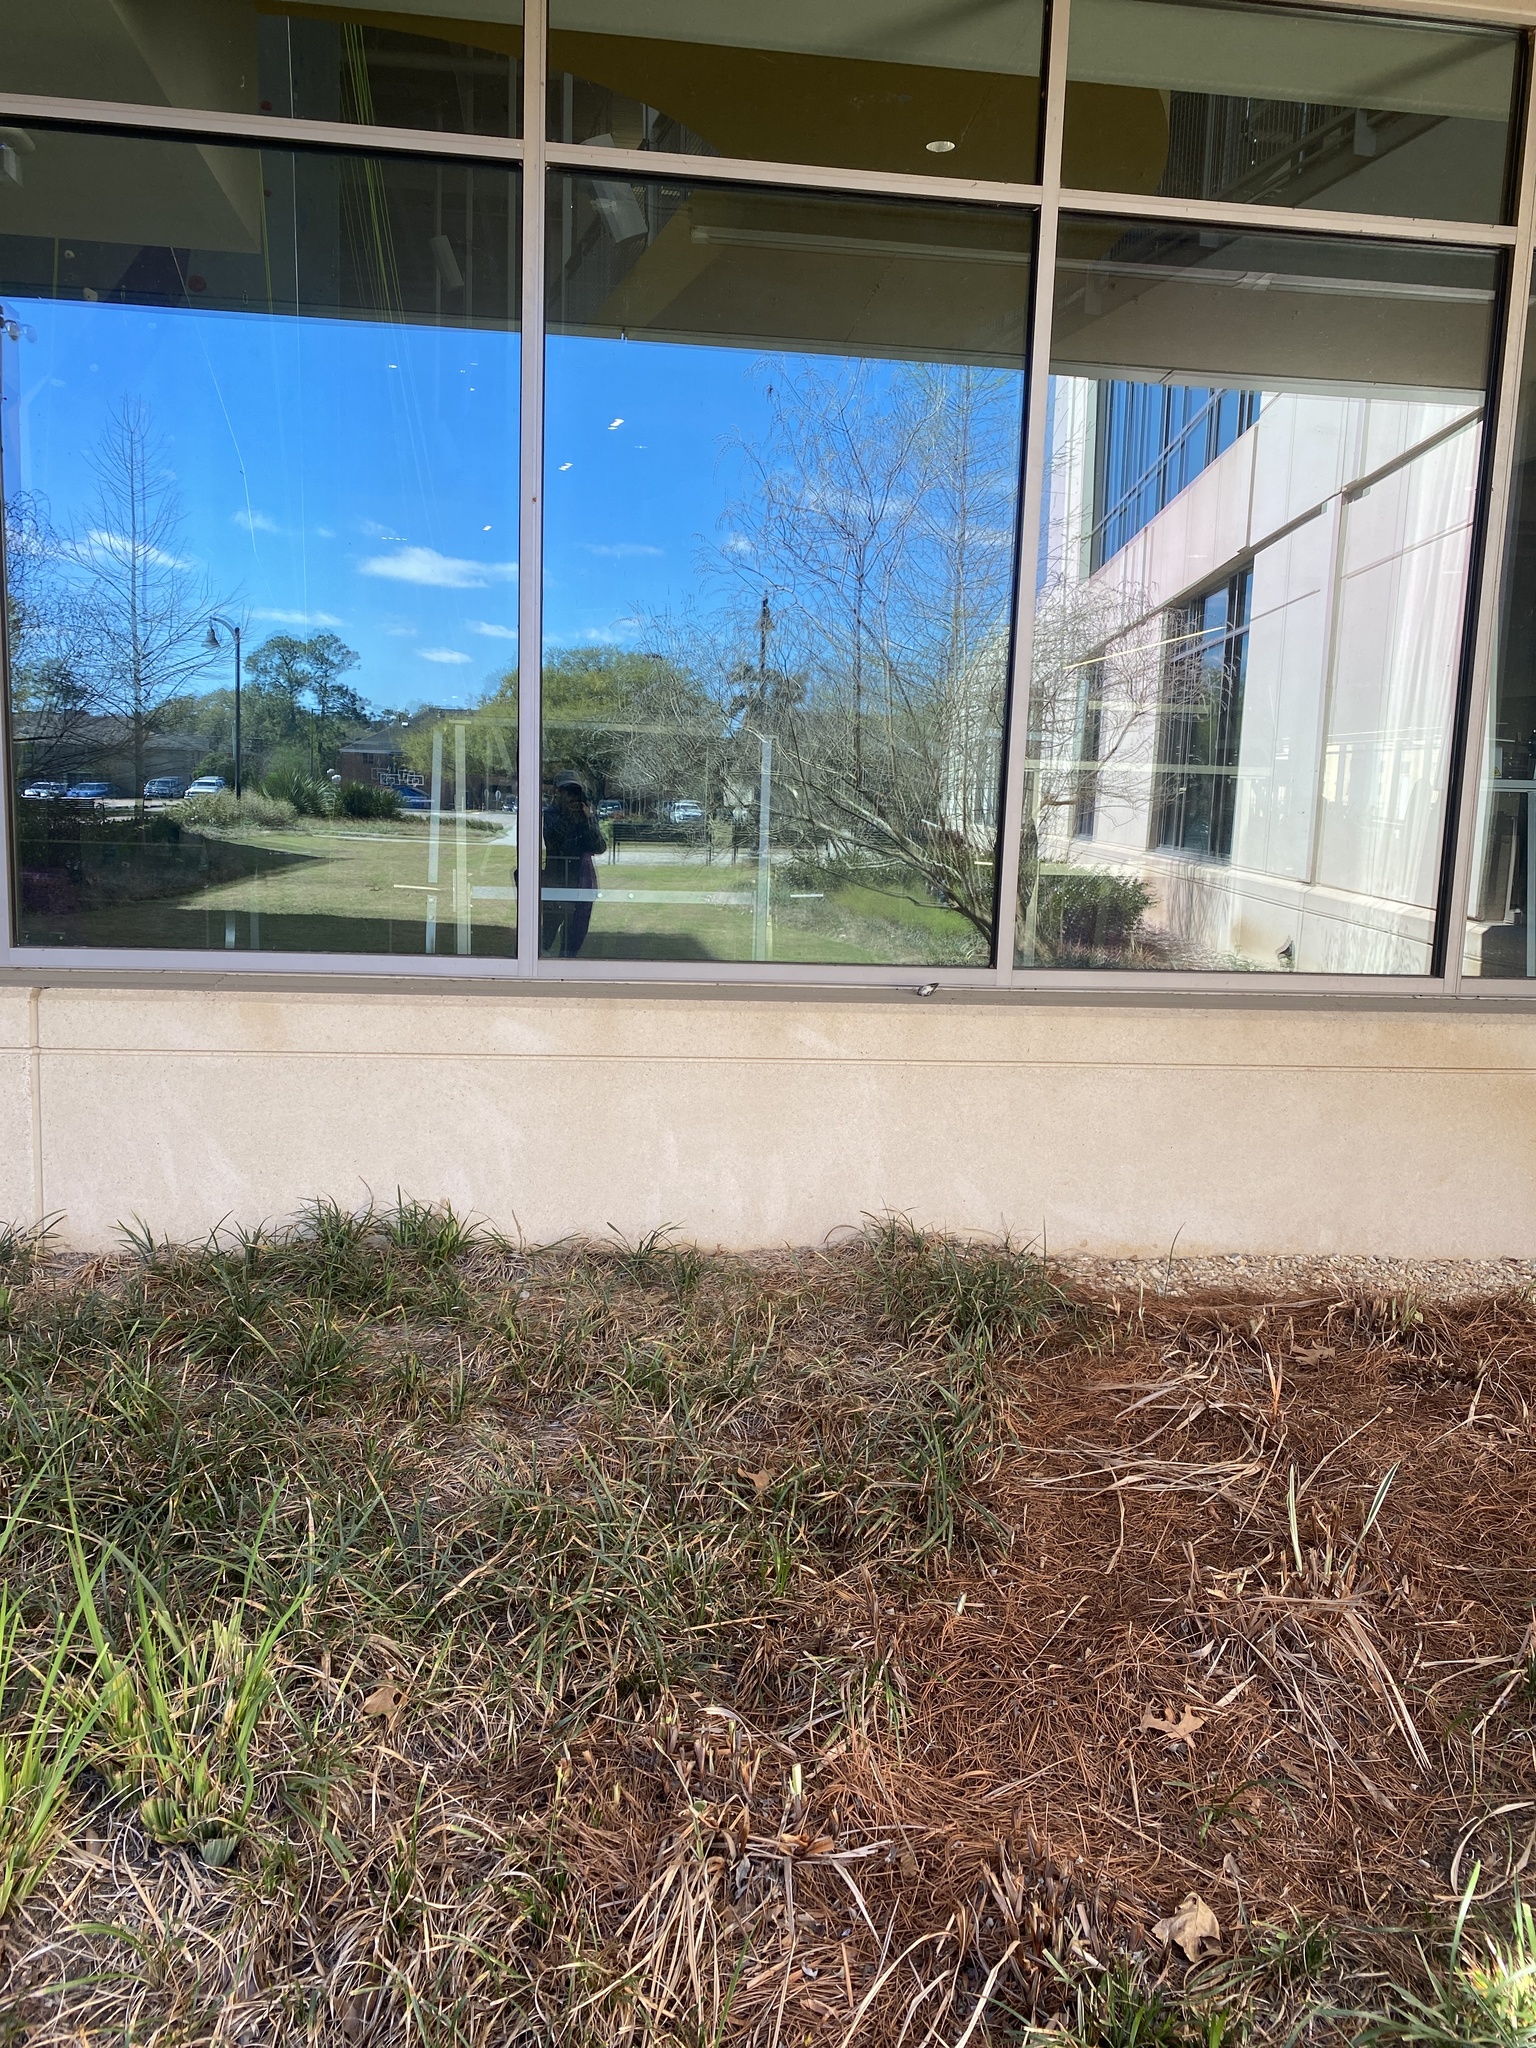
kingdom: Animalia
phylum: Chordata
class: Aves
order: Passeriformes
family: Parulidae
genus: Setophaga
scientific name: Setophaga coronata
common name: Myrtle warbler
